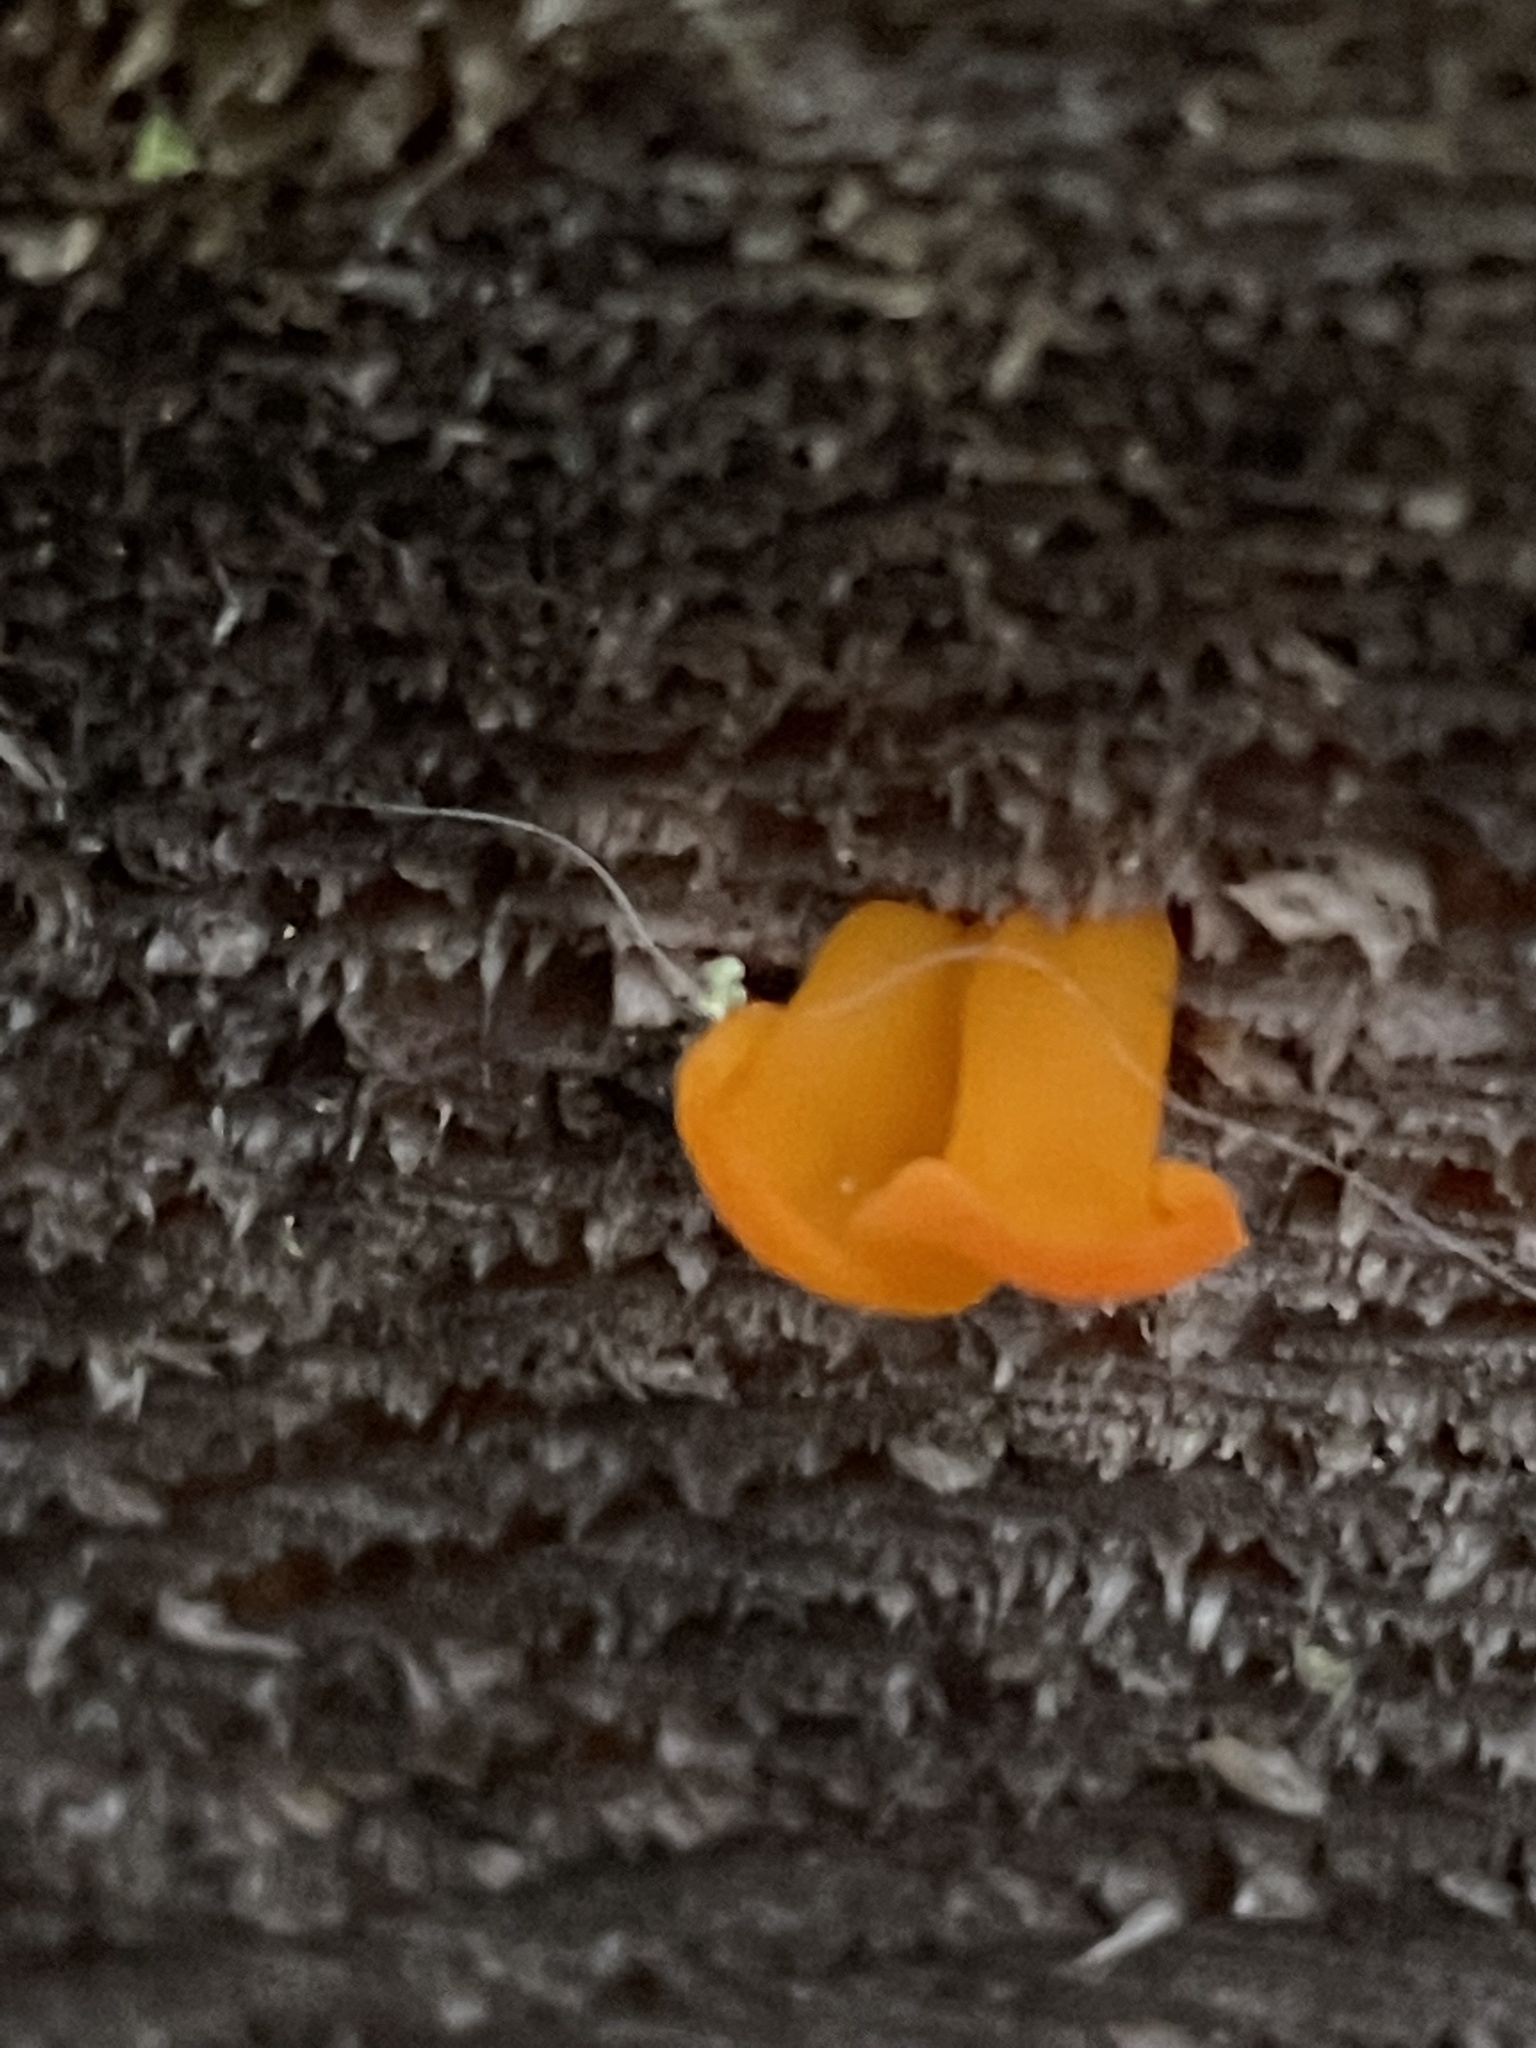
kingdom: Fungi
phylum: Basidiomycota
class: Dacrymycetes
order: Dacrymycetales
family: Dacrymycetaceae
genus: Dacrymyces
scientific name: Dacrymyces chrysospermus
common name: Orange jelly spot
